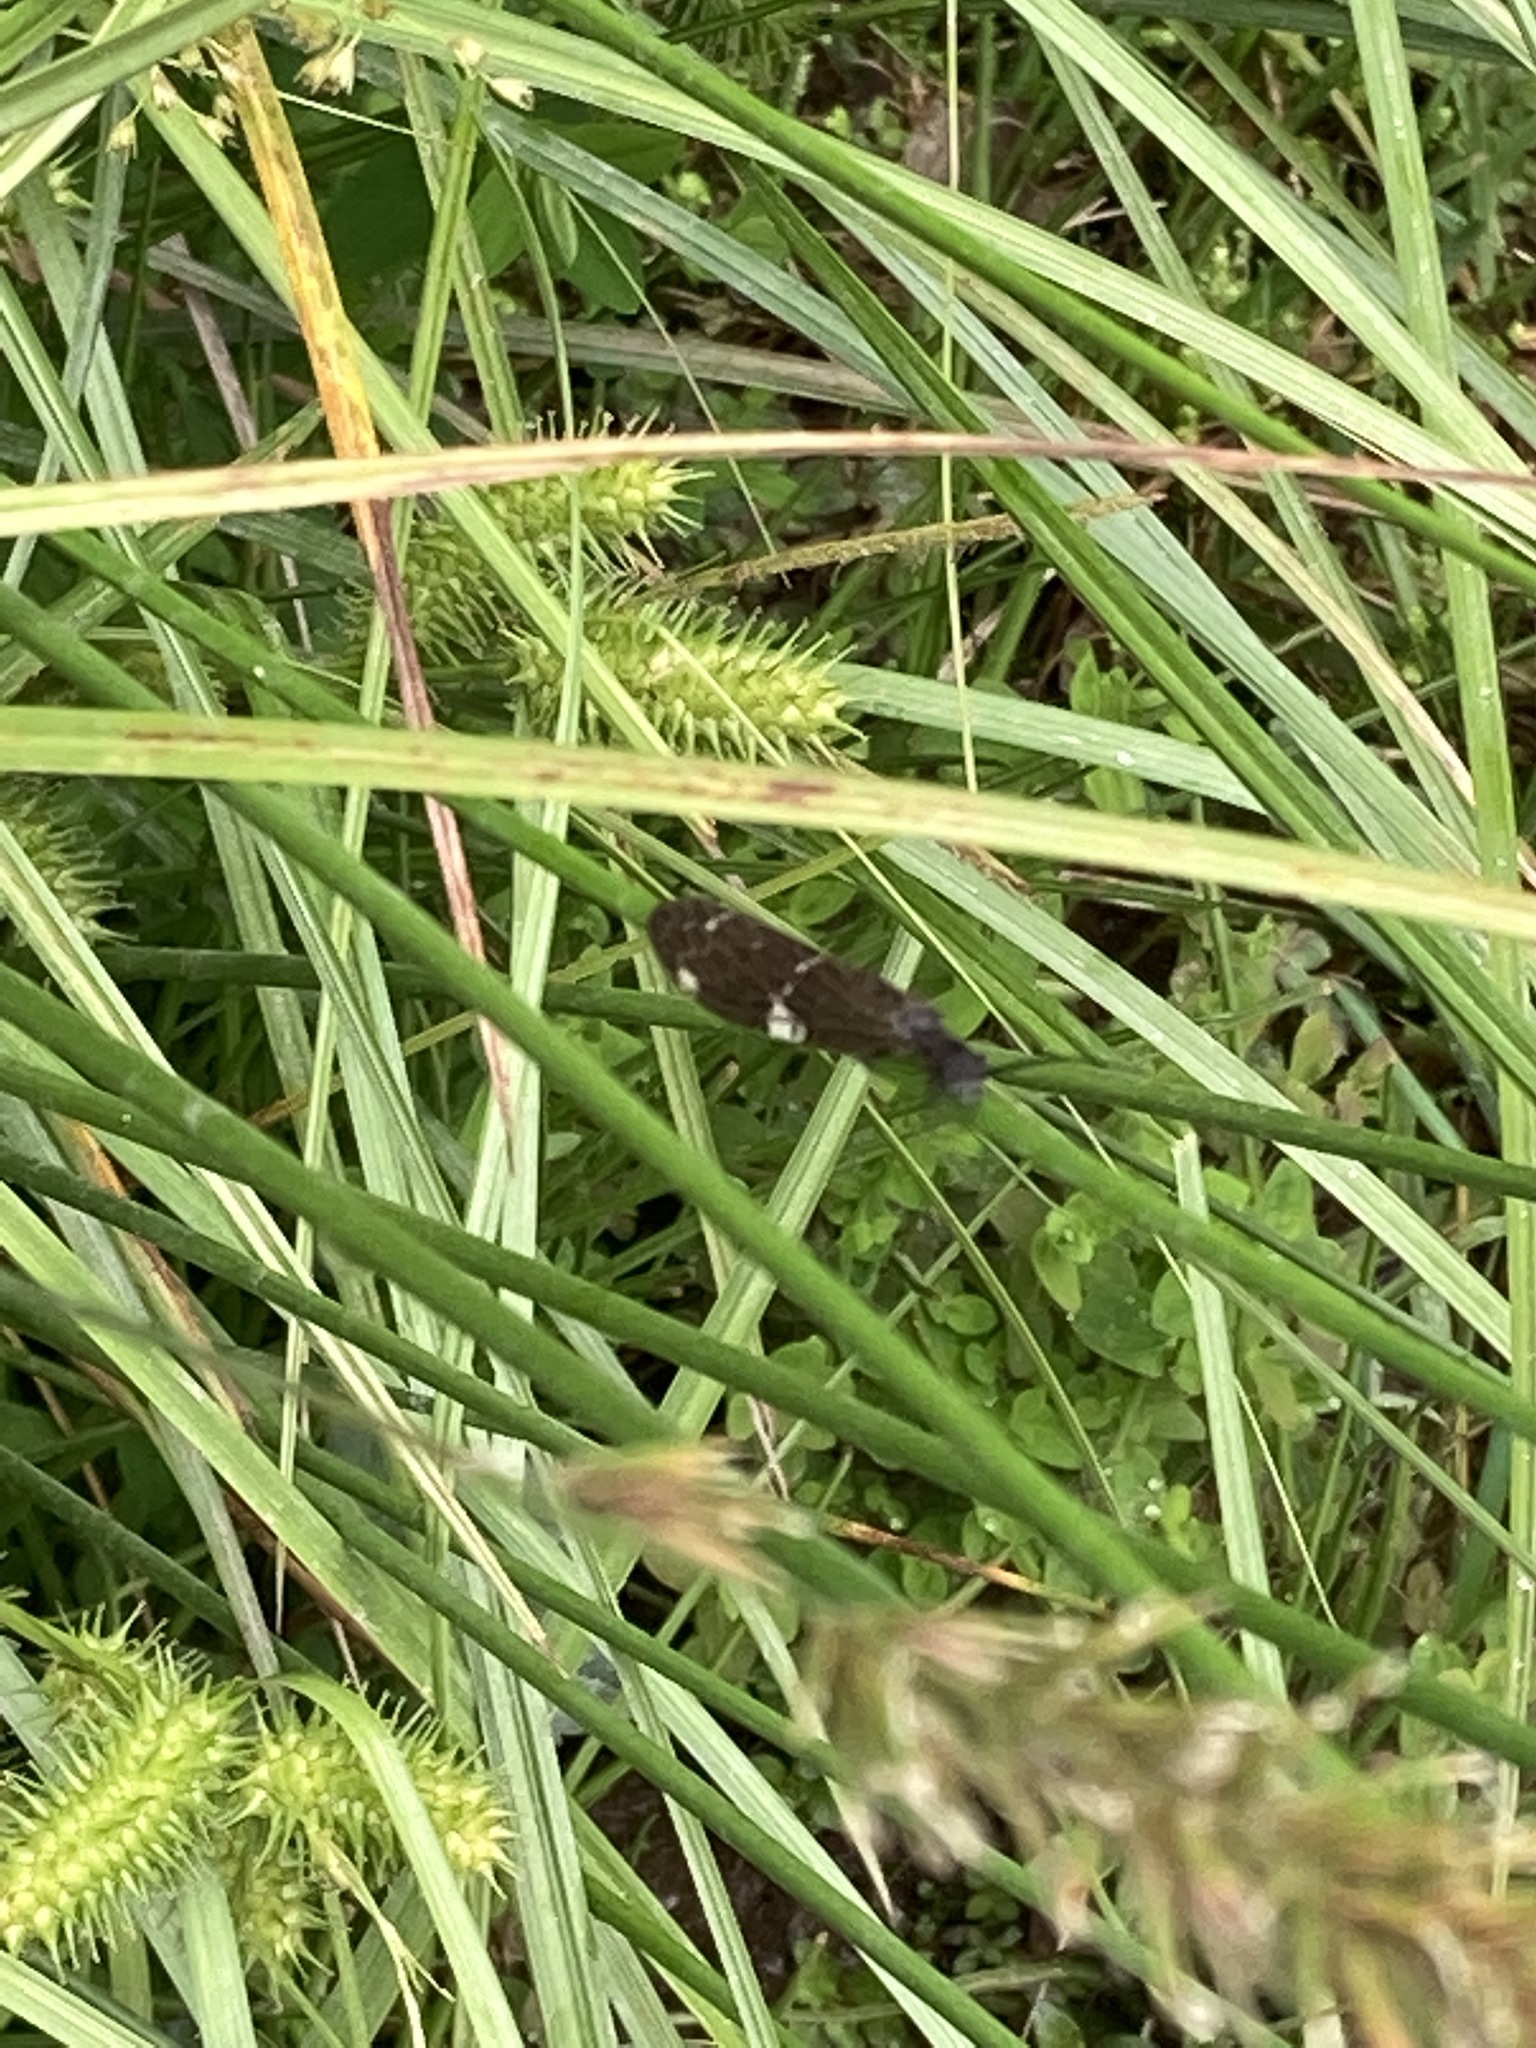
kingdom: Animalia
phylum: Arthropoda
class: Insecta
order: Megaloptera
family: Corydalidae
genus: Nigronia
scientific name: Nigronia serricornis
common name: Serrate dark fishfly
